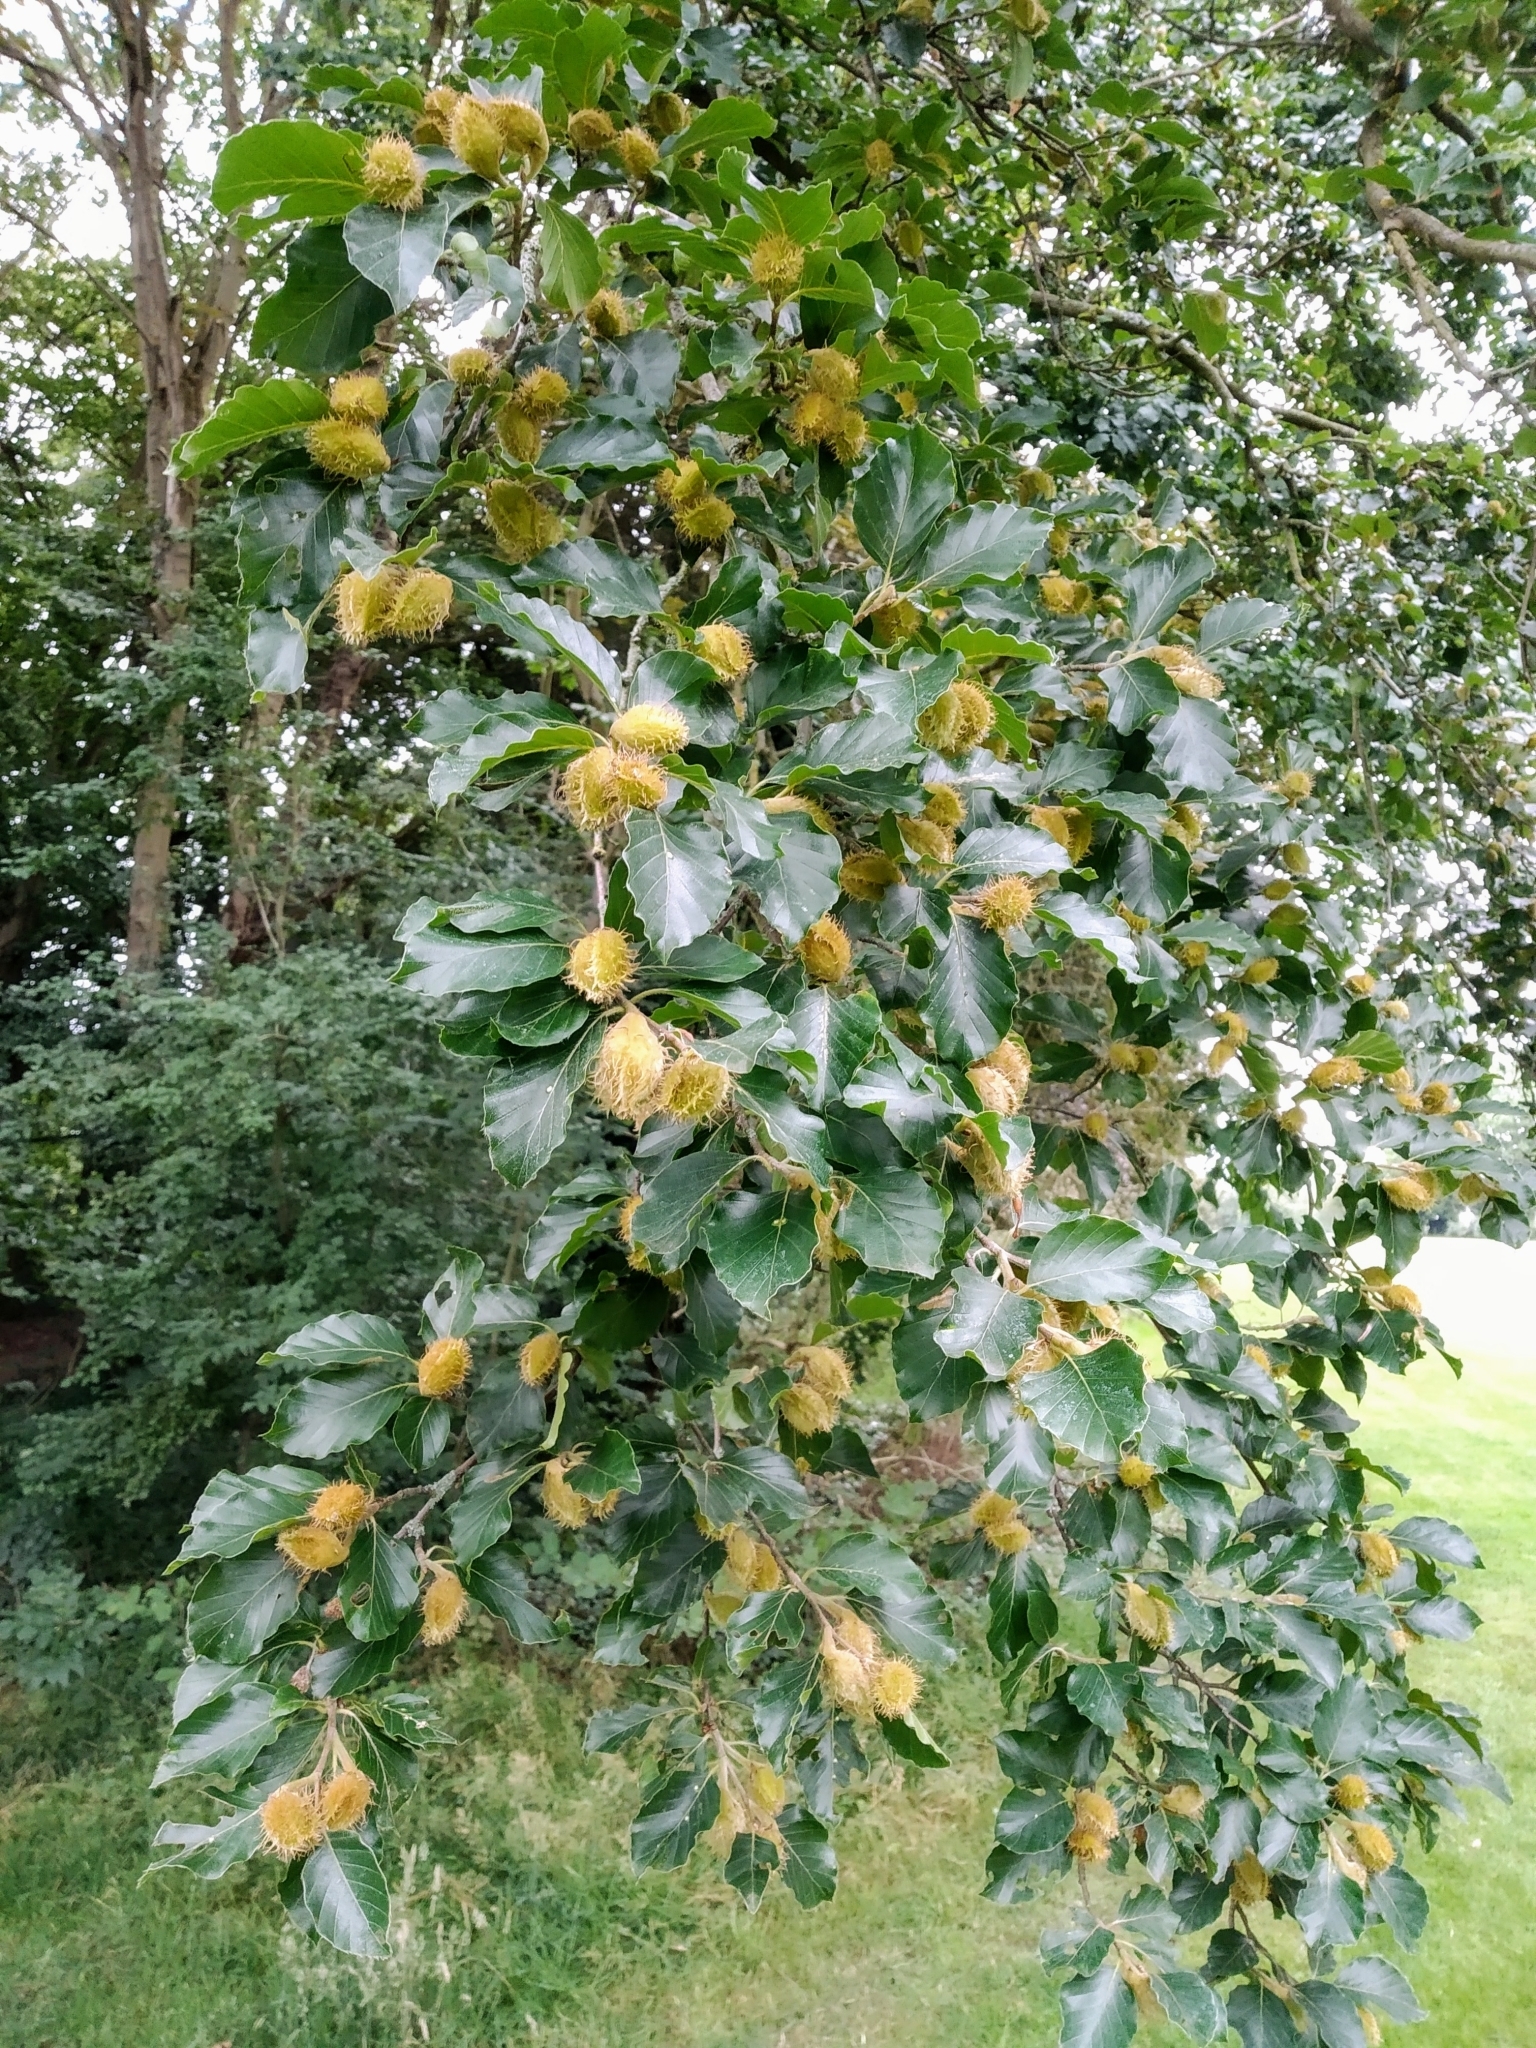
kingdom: Plantae
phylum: Tracheophyta
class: Magnoliopsida
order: Fagales
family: Fagaceae
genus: Fagus
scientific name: Fagus sylvatica
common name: Beech
